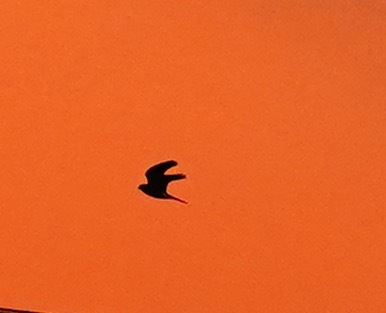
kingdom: Animalia
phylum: Chordata
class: Aves
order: Falconiformes
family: Falconidae
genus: Falco
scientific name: Falco sparverius
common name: American kestrel
